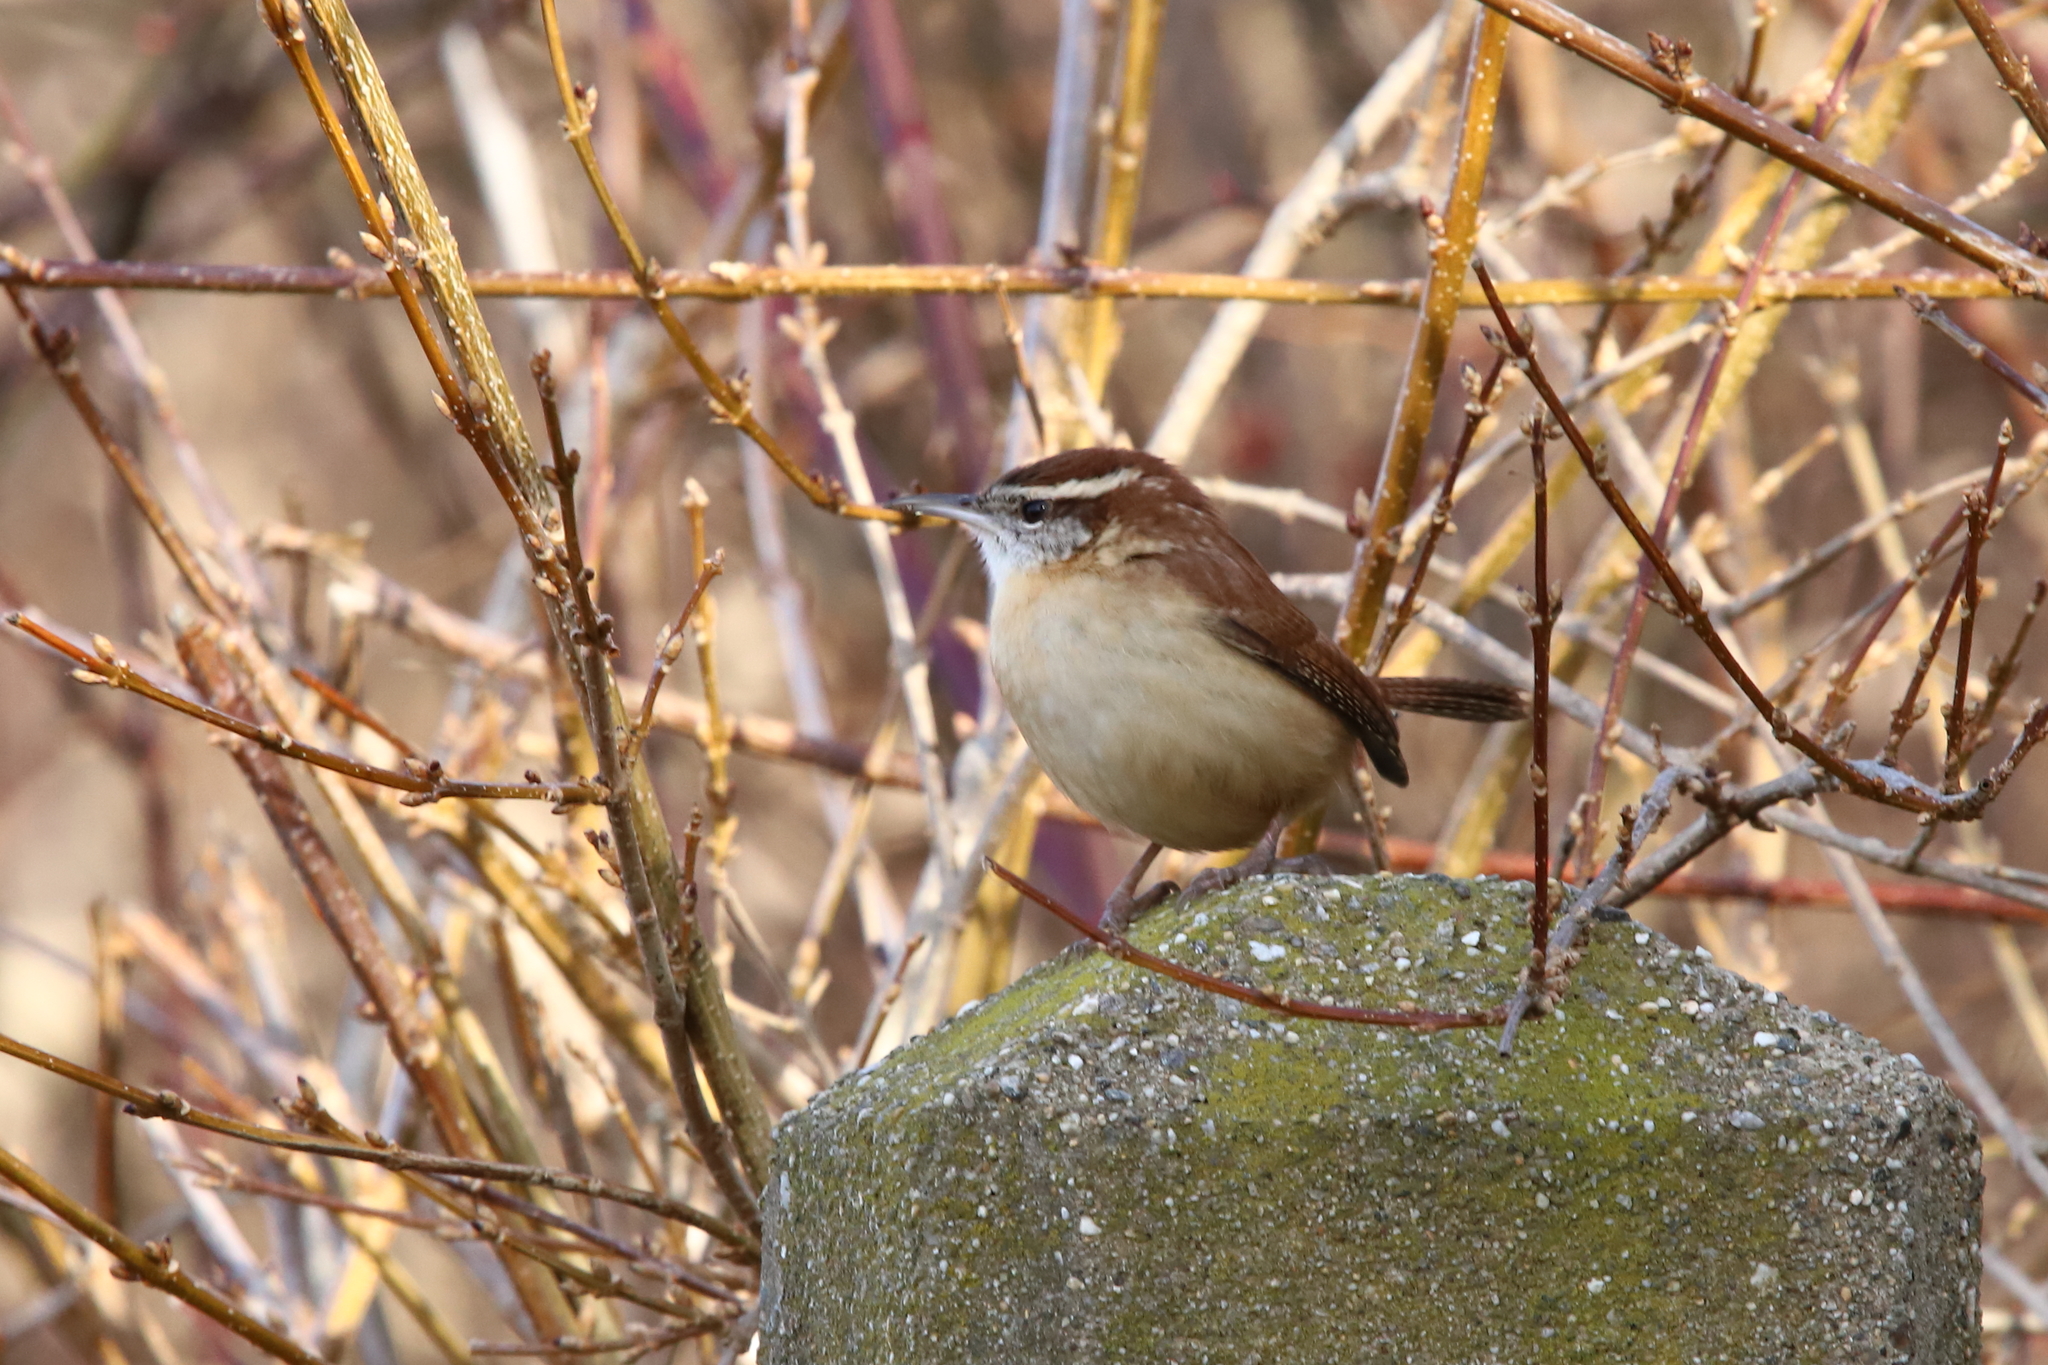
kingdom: Animalia
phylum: Chordata
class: Aves
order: Passeriformes
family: Troglodytidae
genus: Thryothorus
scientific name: Thryothorus ludovicianus
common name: Carolina wren
